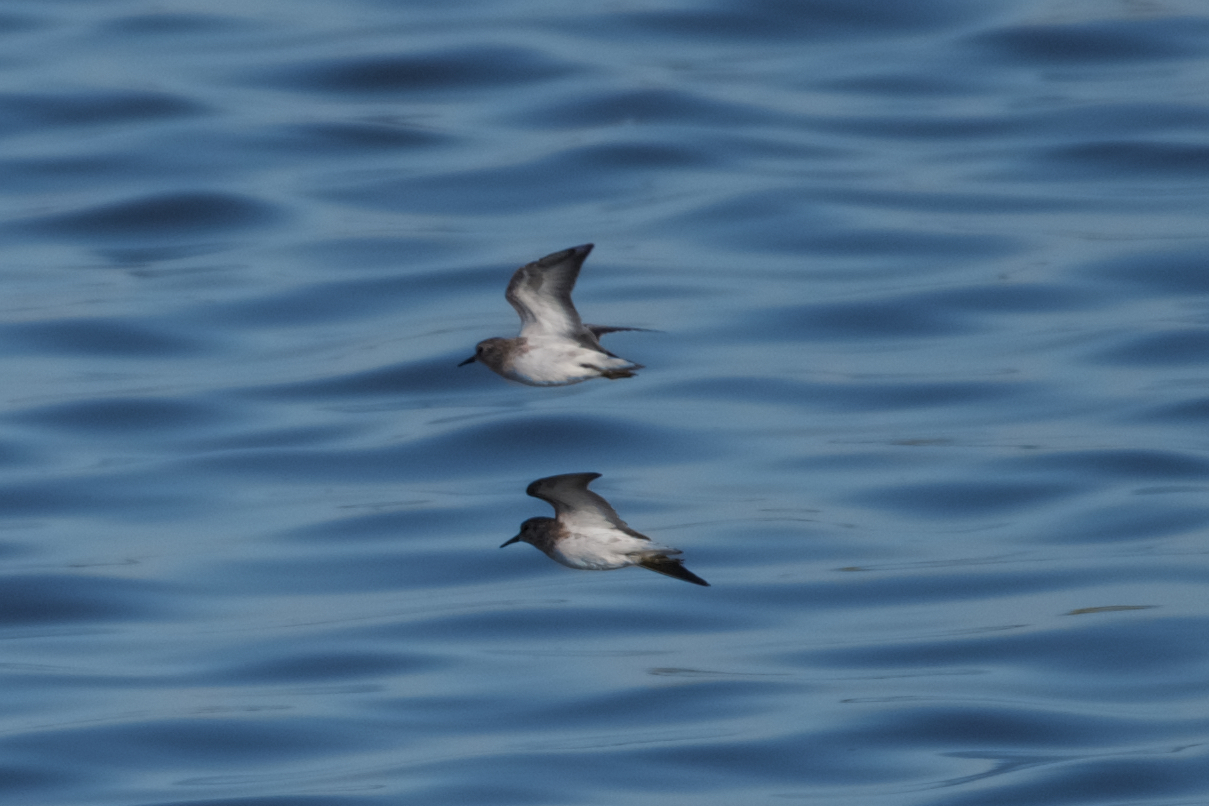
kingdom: Animalia
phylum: Chordata
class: Aves
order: Charadriiformes
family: Scolopacidae
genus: Calidris
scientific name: Calidris minutilla
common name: Least sandpiper
